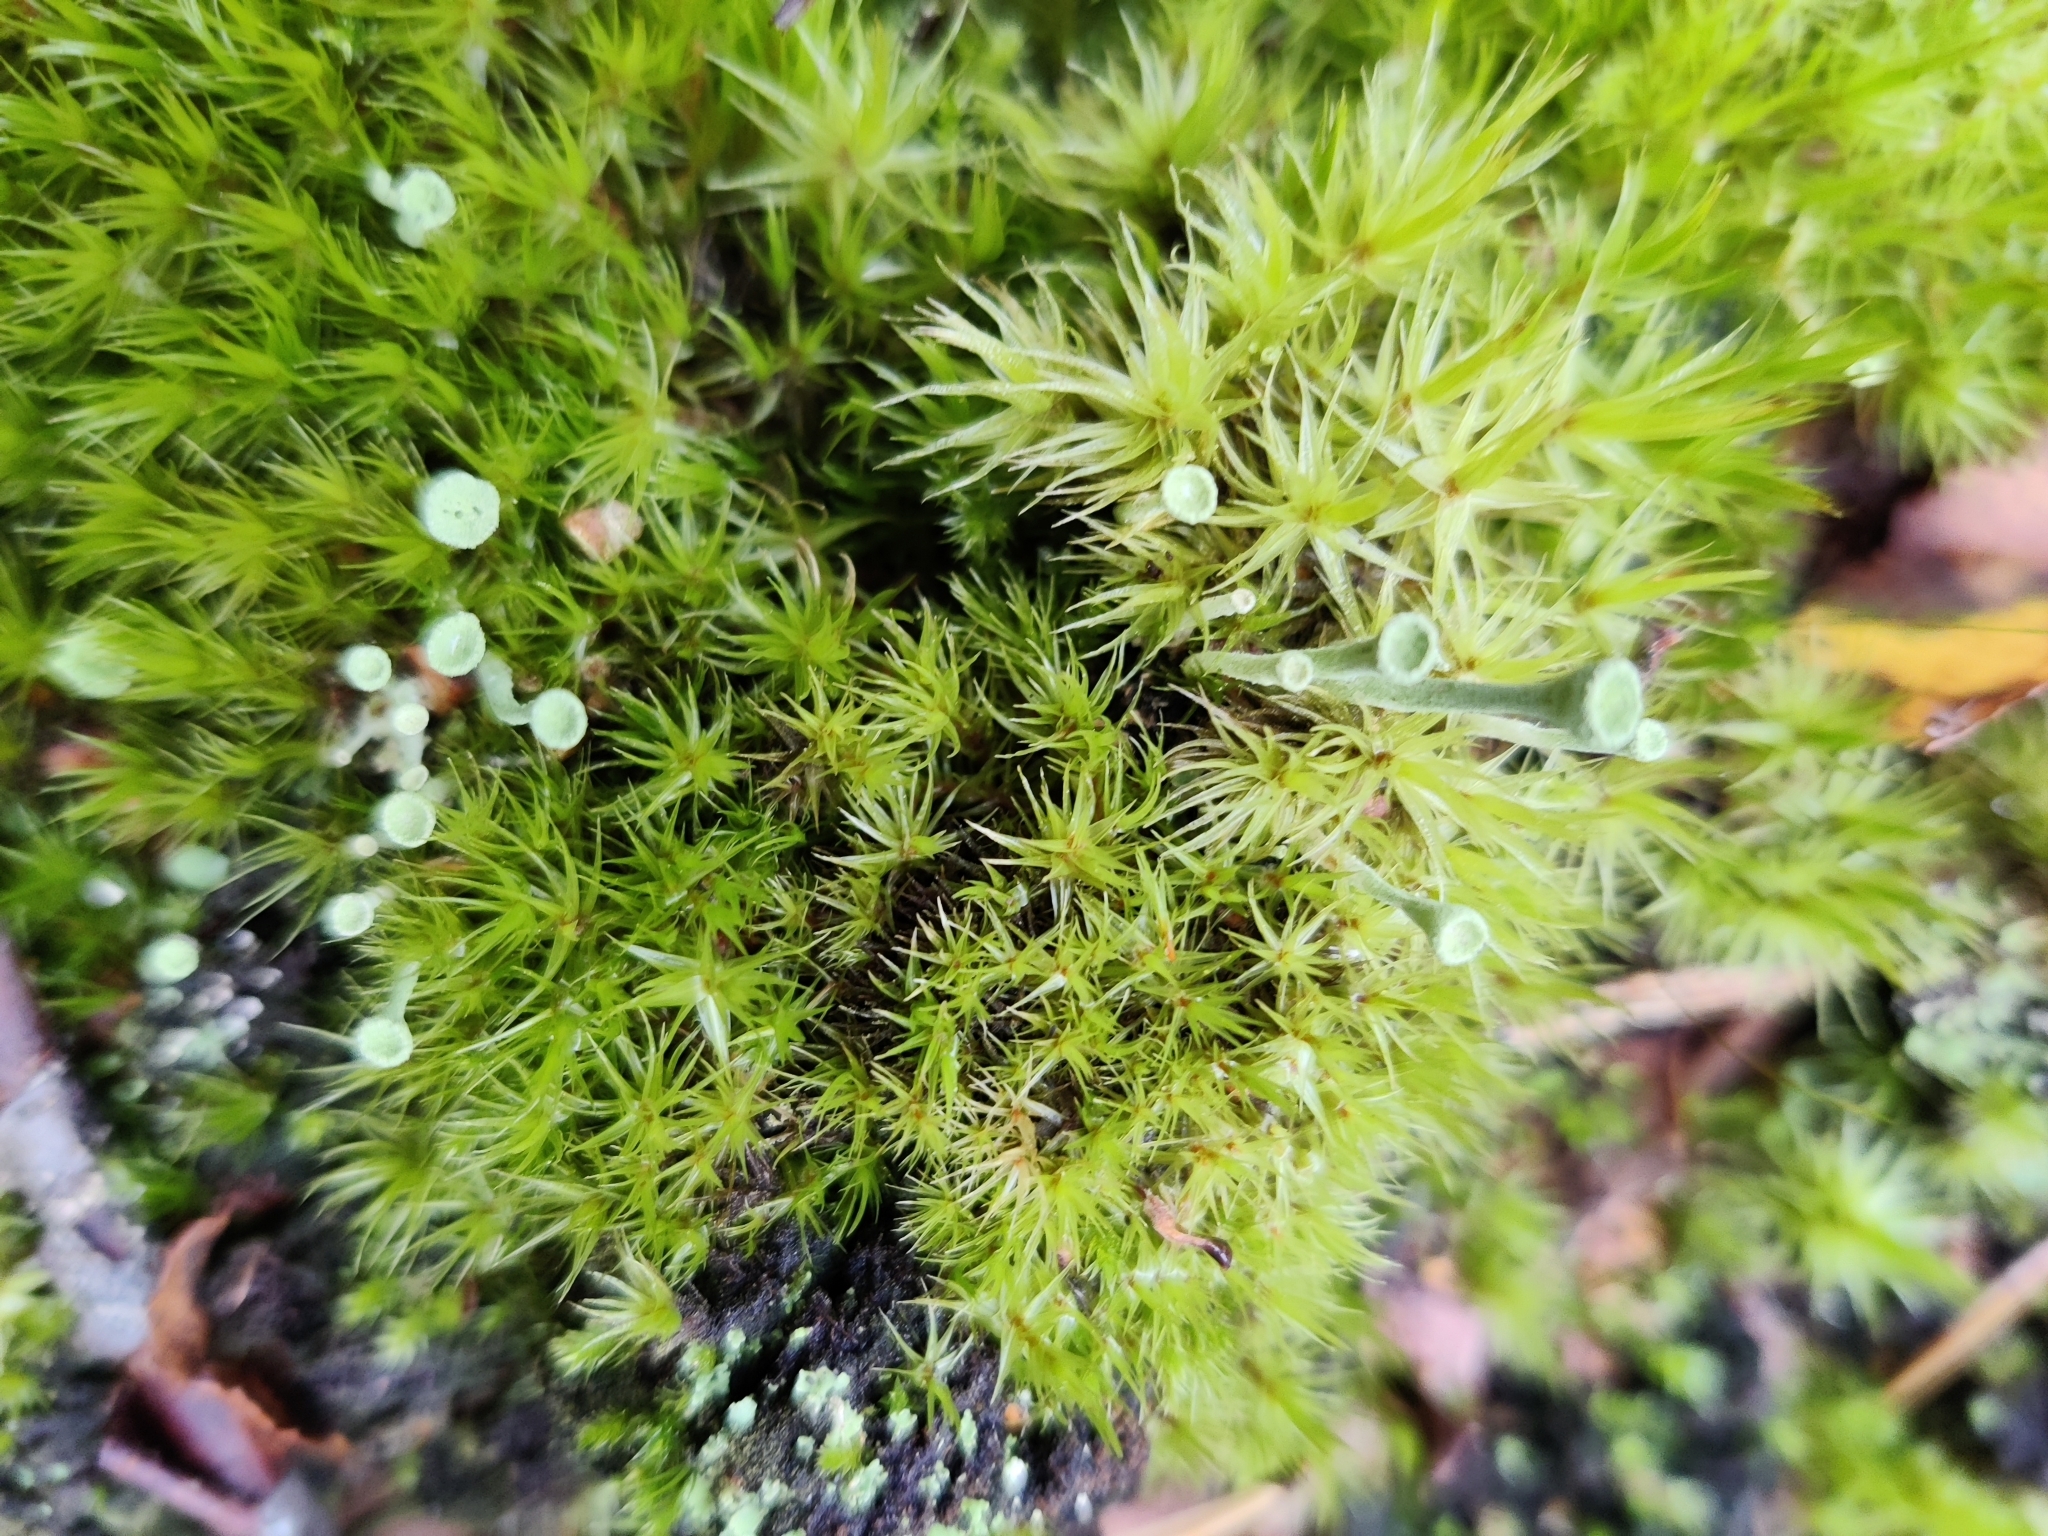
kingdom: Fungi
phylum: Ascomycota
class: Lecanoromycetes
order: Lecanorales
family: Cladoniaceae
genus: Cladonia
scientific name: Cladonia fimbriata
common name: Powdered trumpet lichen
